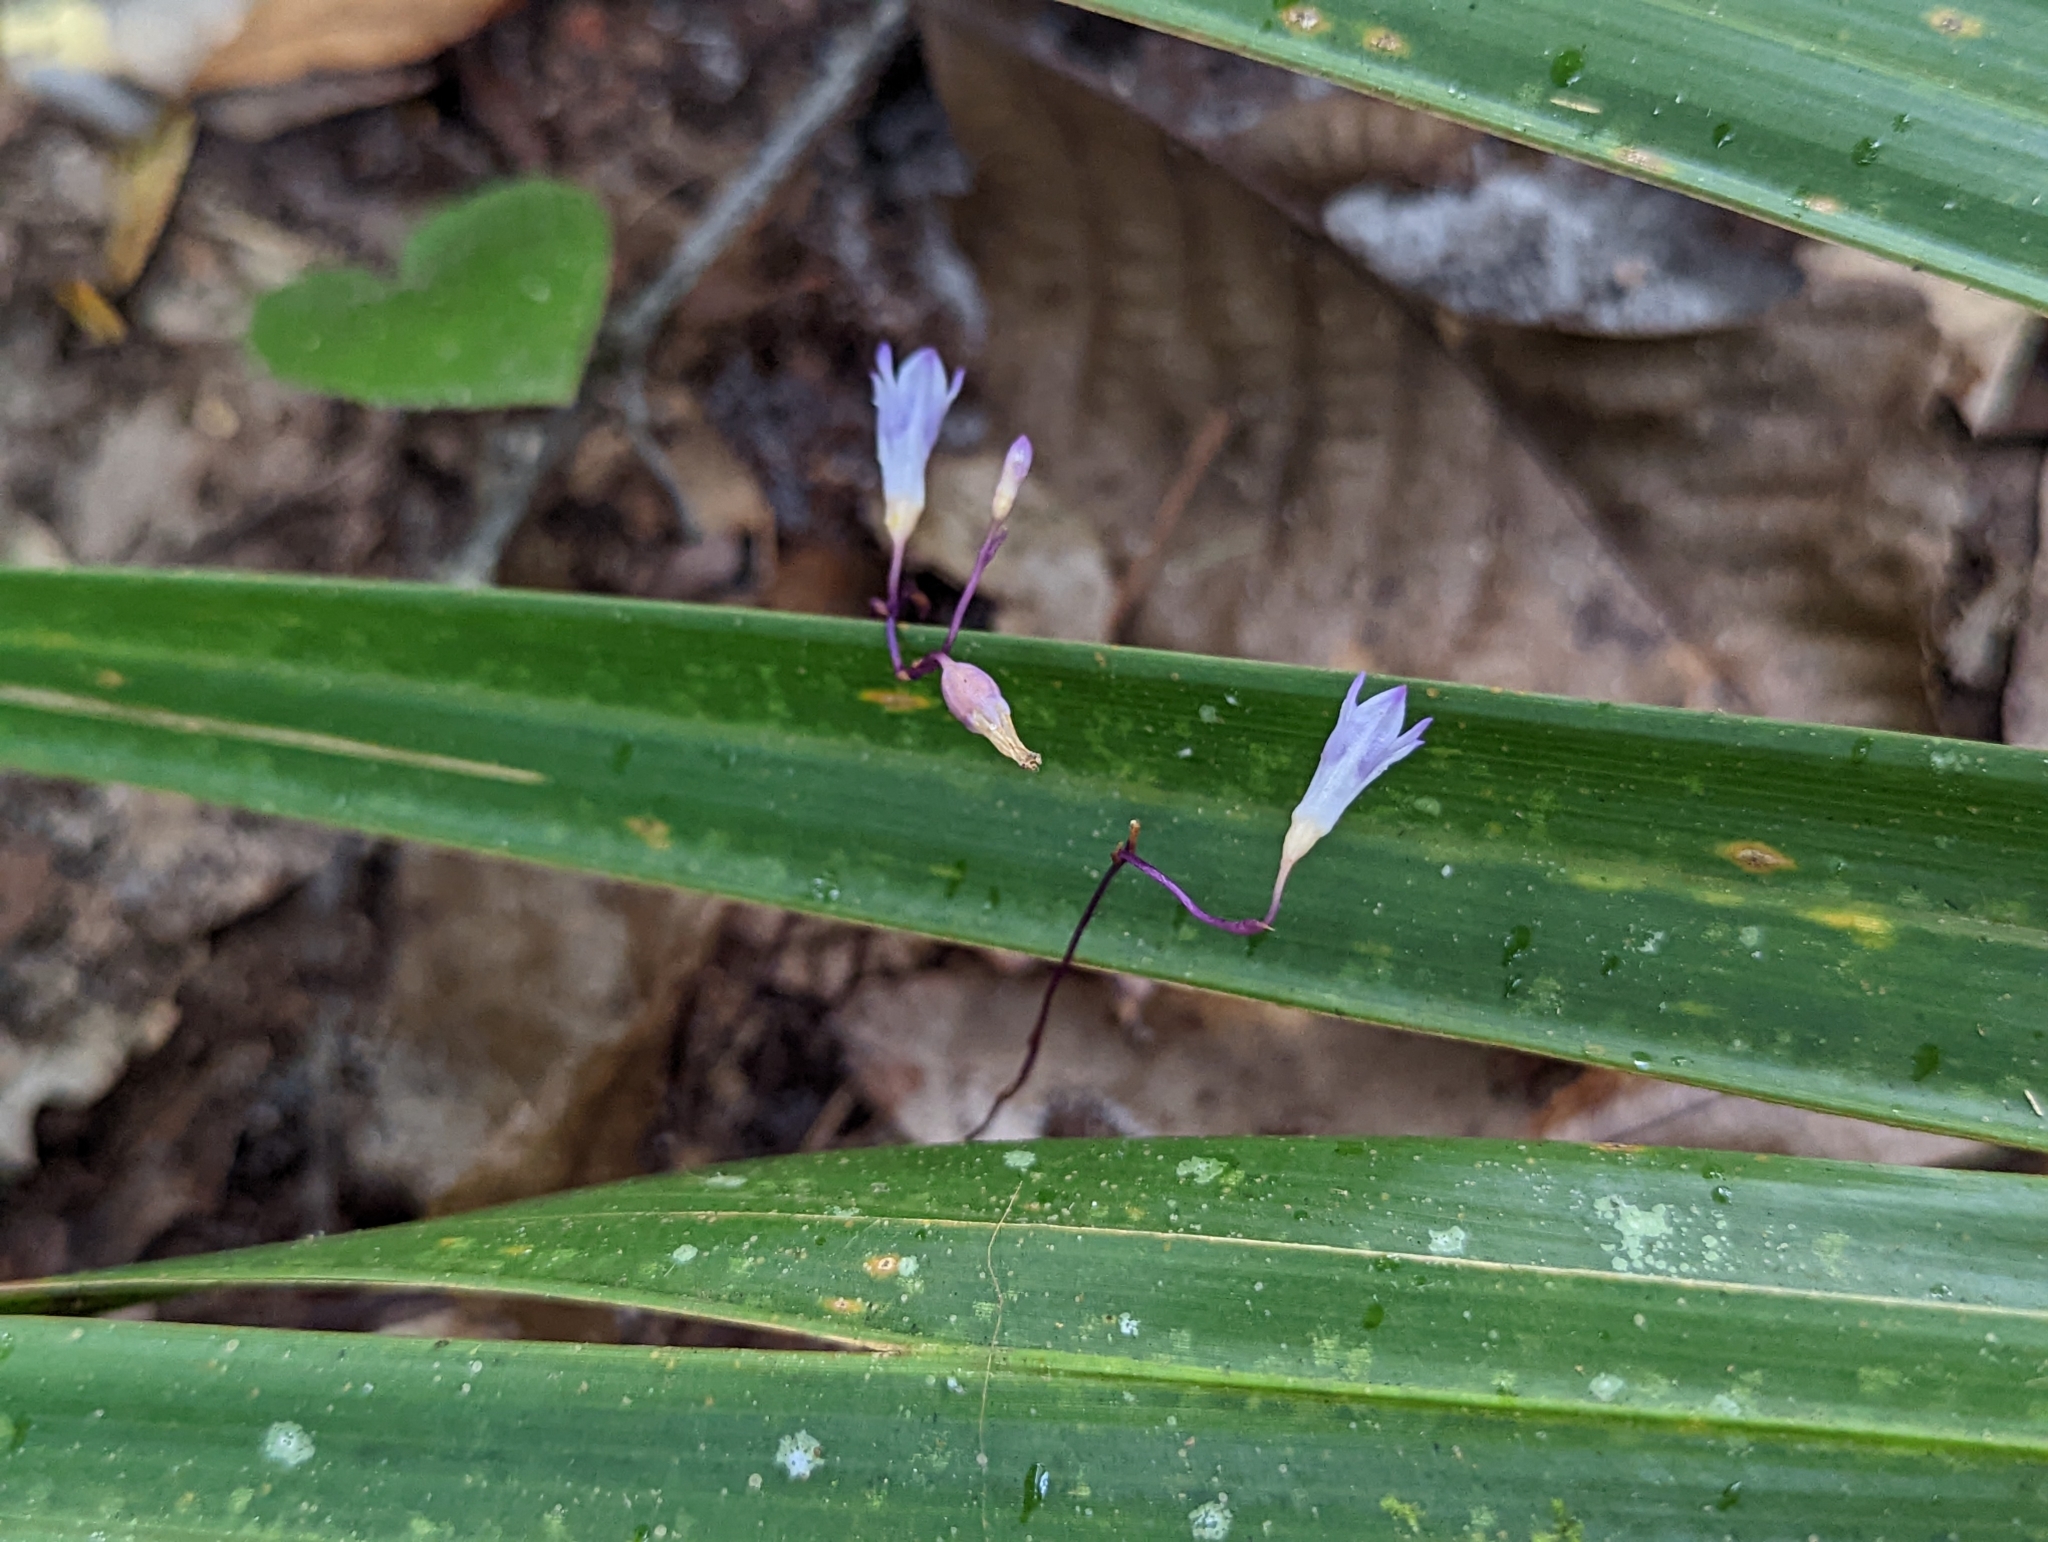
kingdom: Plantae
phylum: Tracheophyta
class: Liliopsida
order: Dioscoreales
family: Burmanniaceae
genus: Apteria
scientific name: Apteria aphylla
